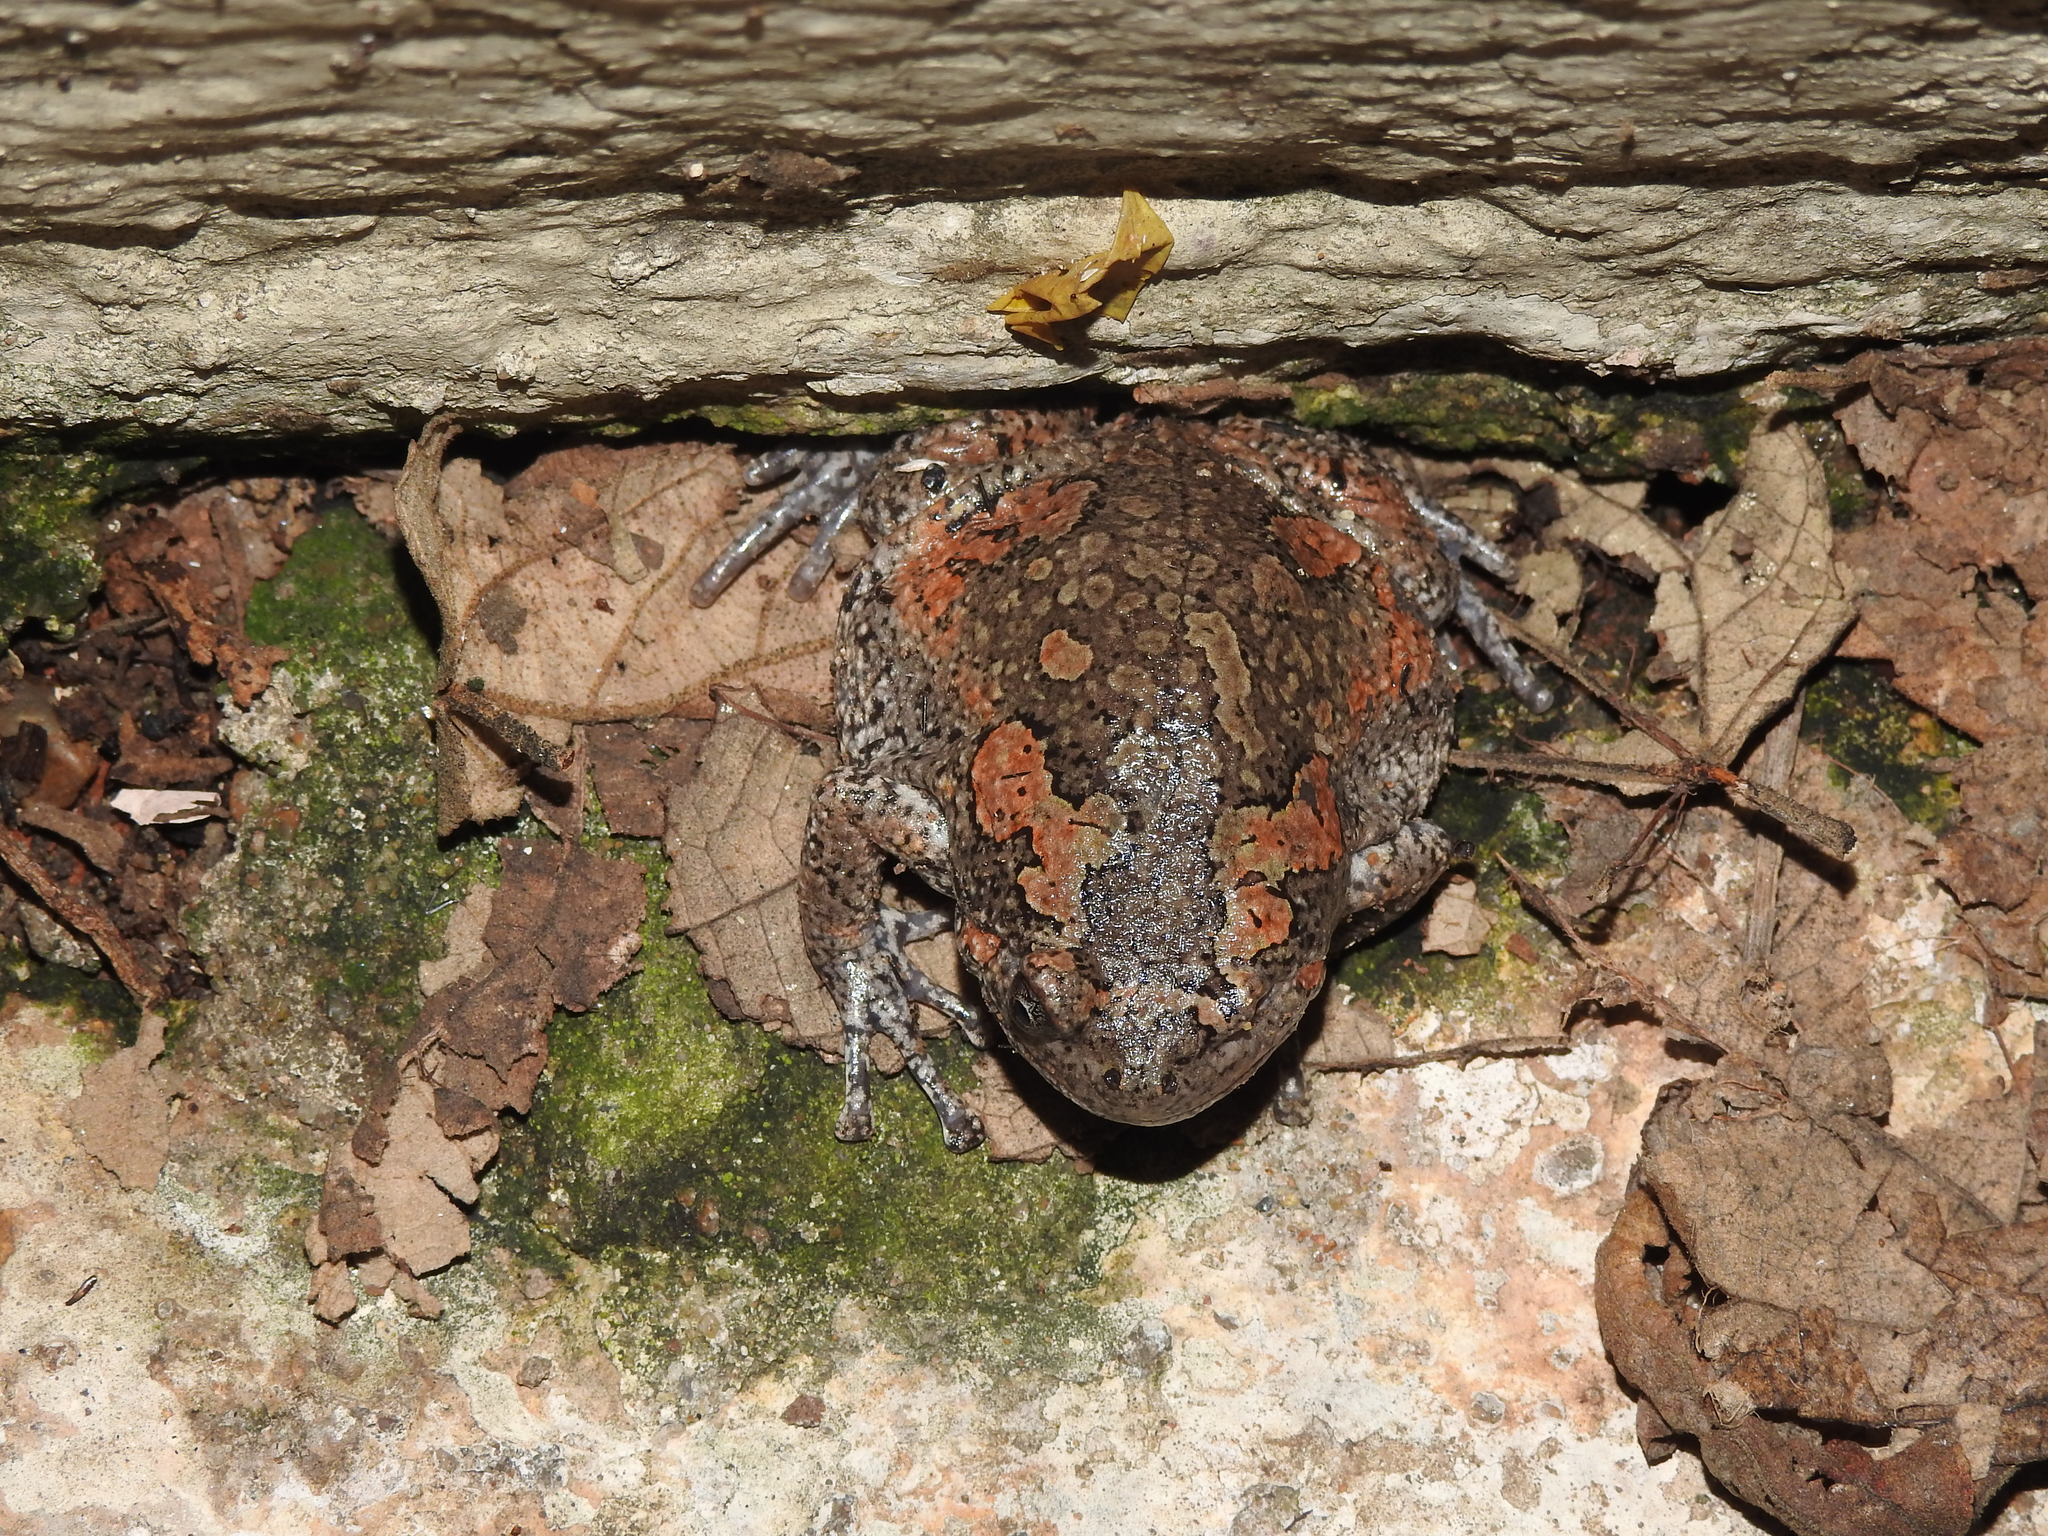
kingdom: Animalia
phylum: Chordata
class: Amphibia
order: Anura
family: Microhylidae
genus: Uperodon
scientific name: Uperodon taprobanicus
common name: Ceylon kaloula
